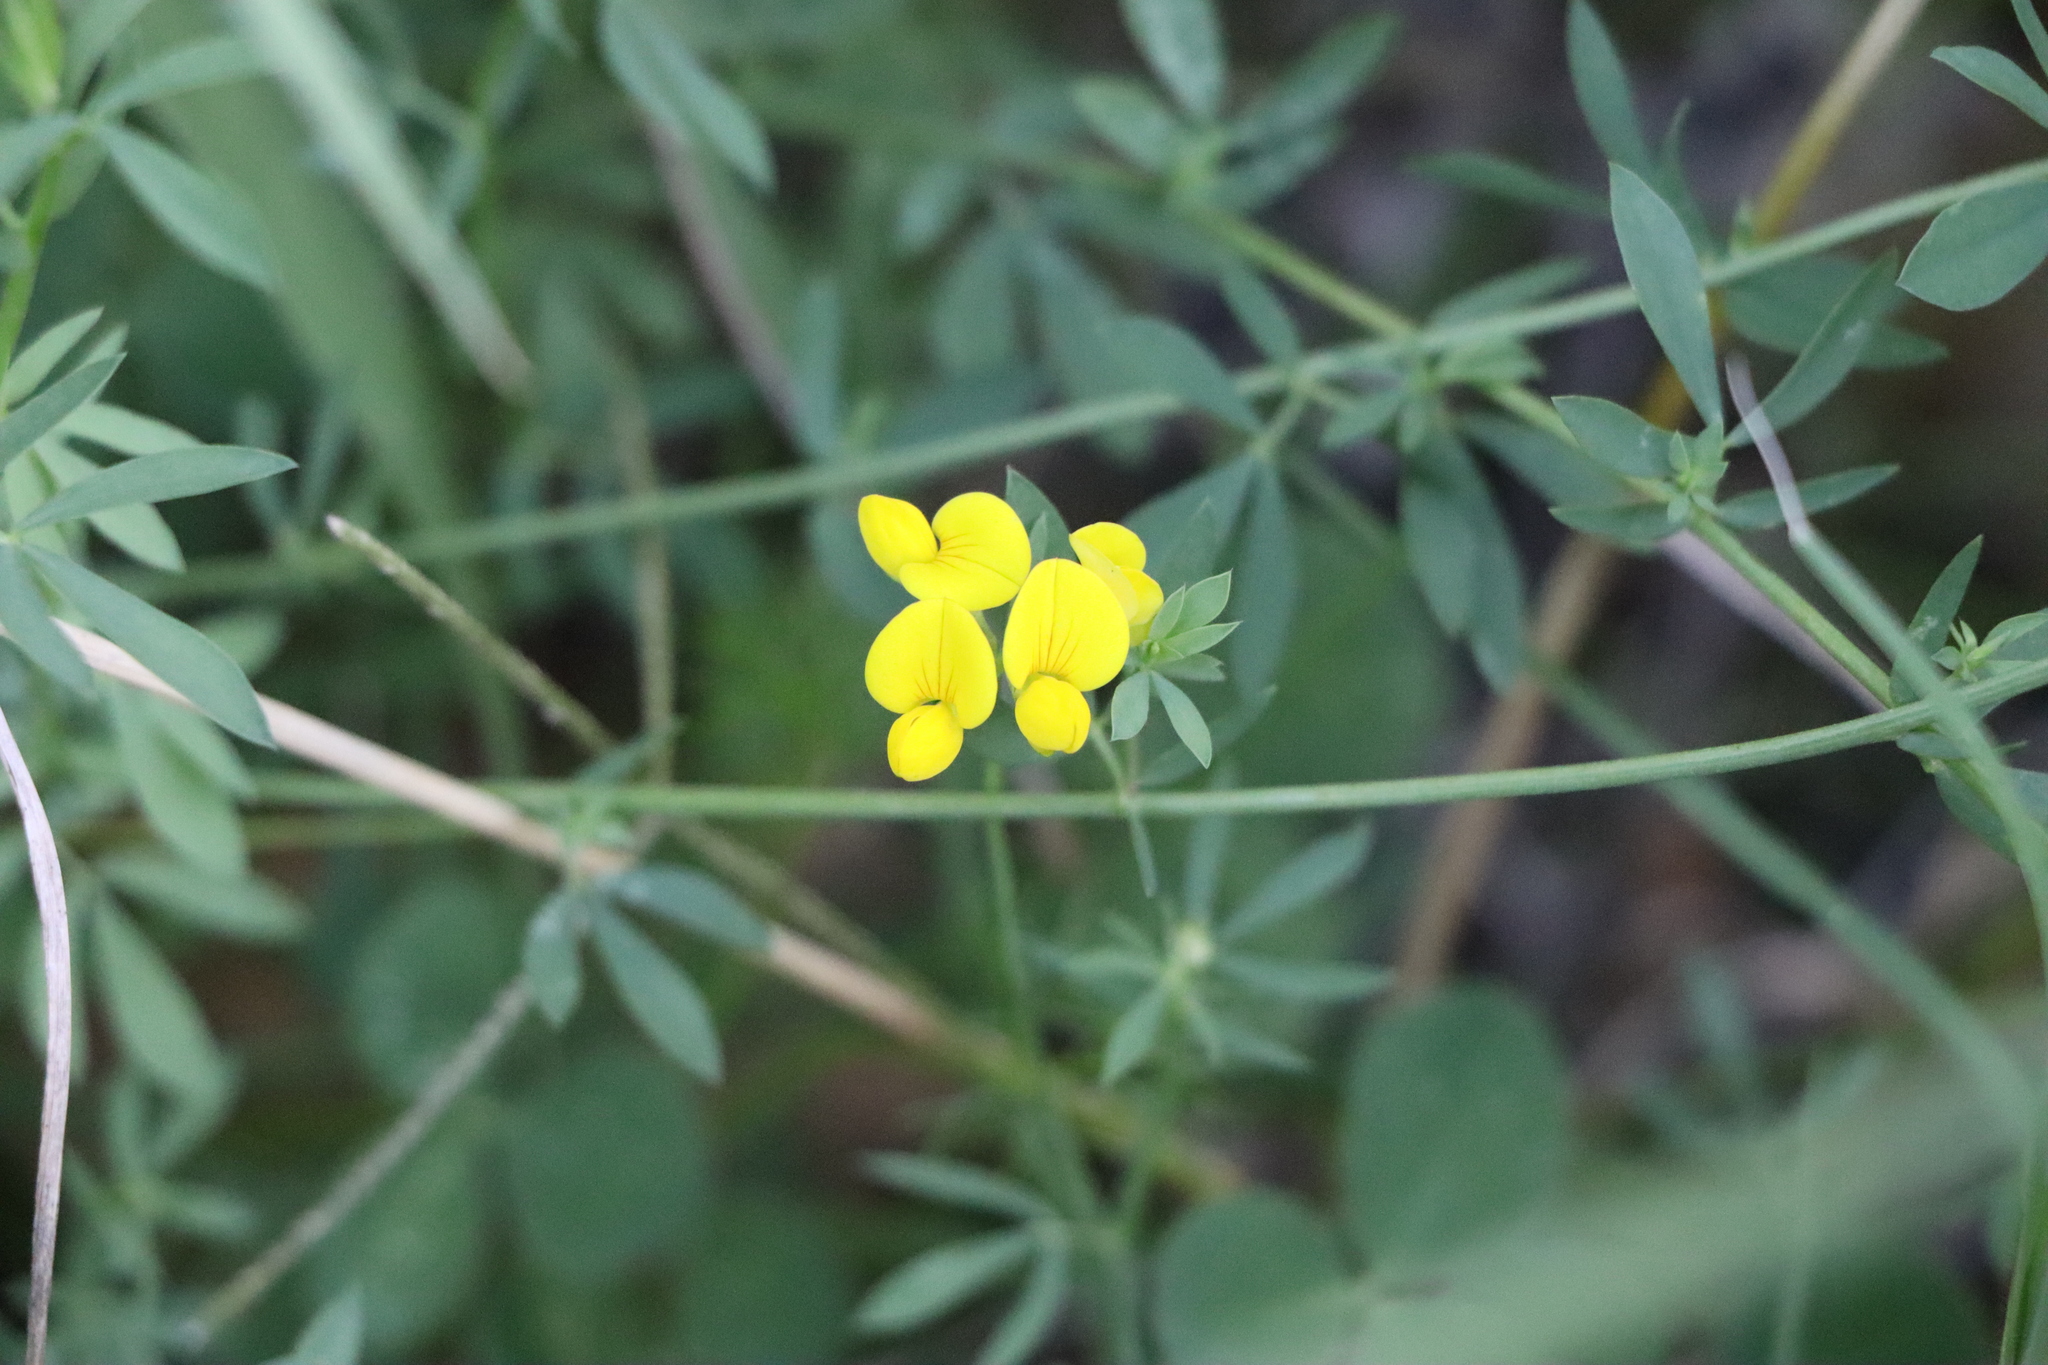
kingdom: Plantae
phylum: Tracheophyta
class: Magnoliopsida
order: Fabales
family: Fabaceae
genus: Lotus
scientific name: Lotus corniculatus
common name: Common bird's-foot-trefoil
